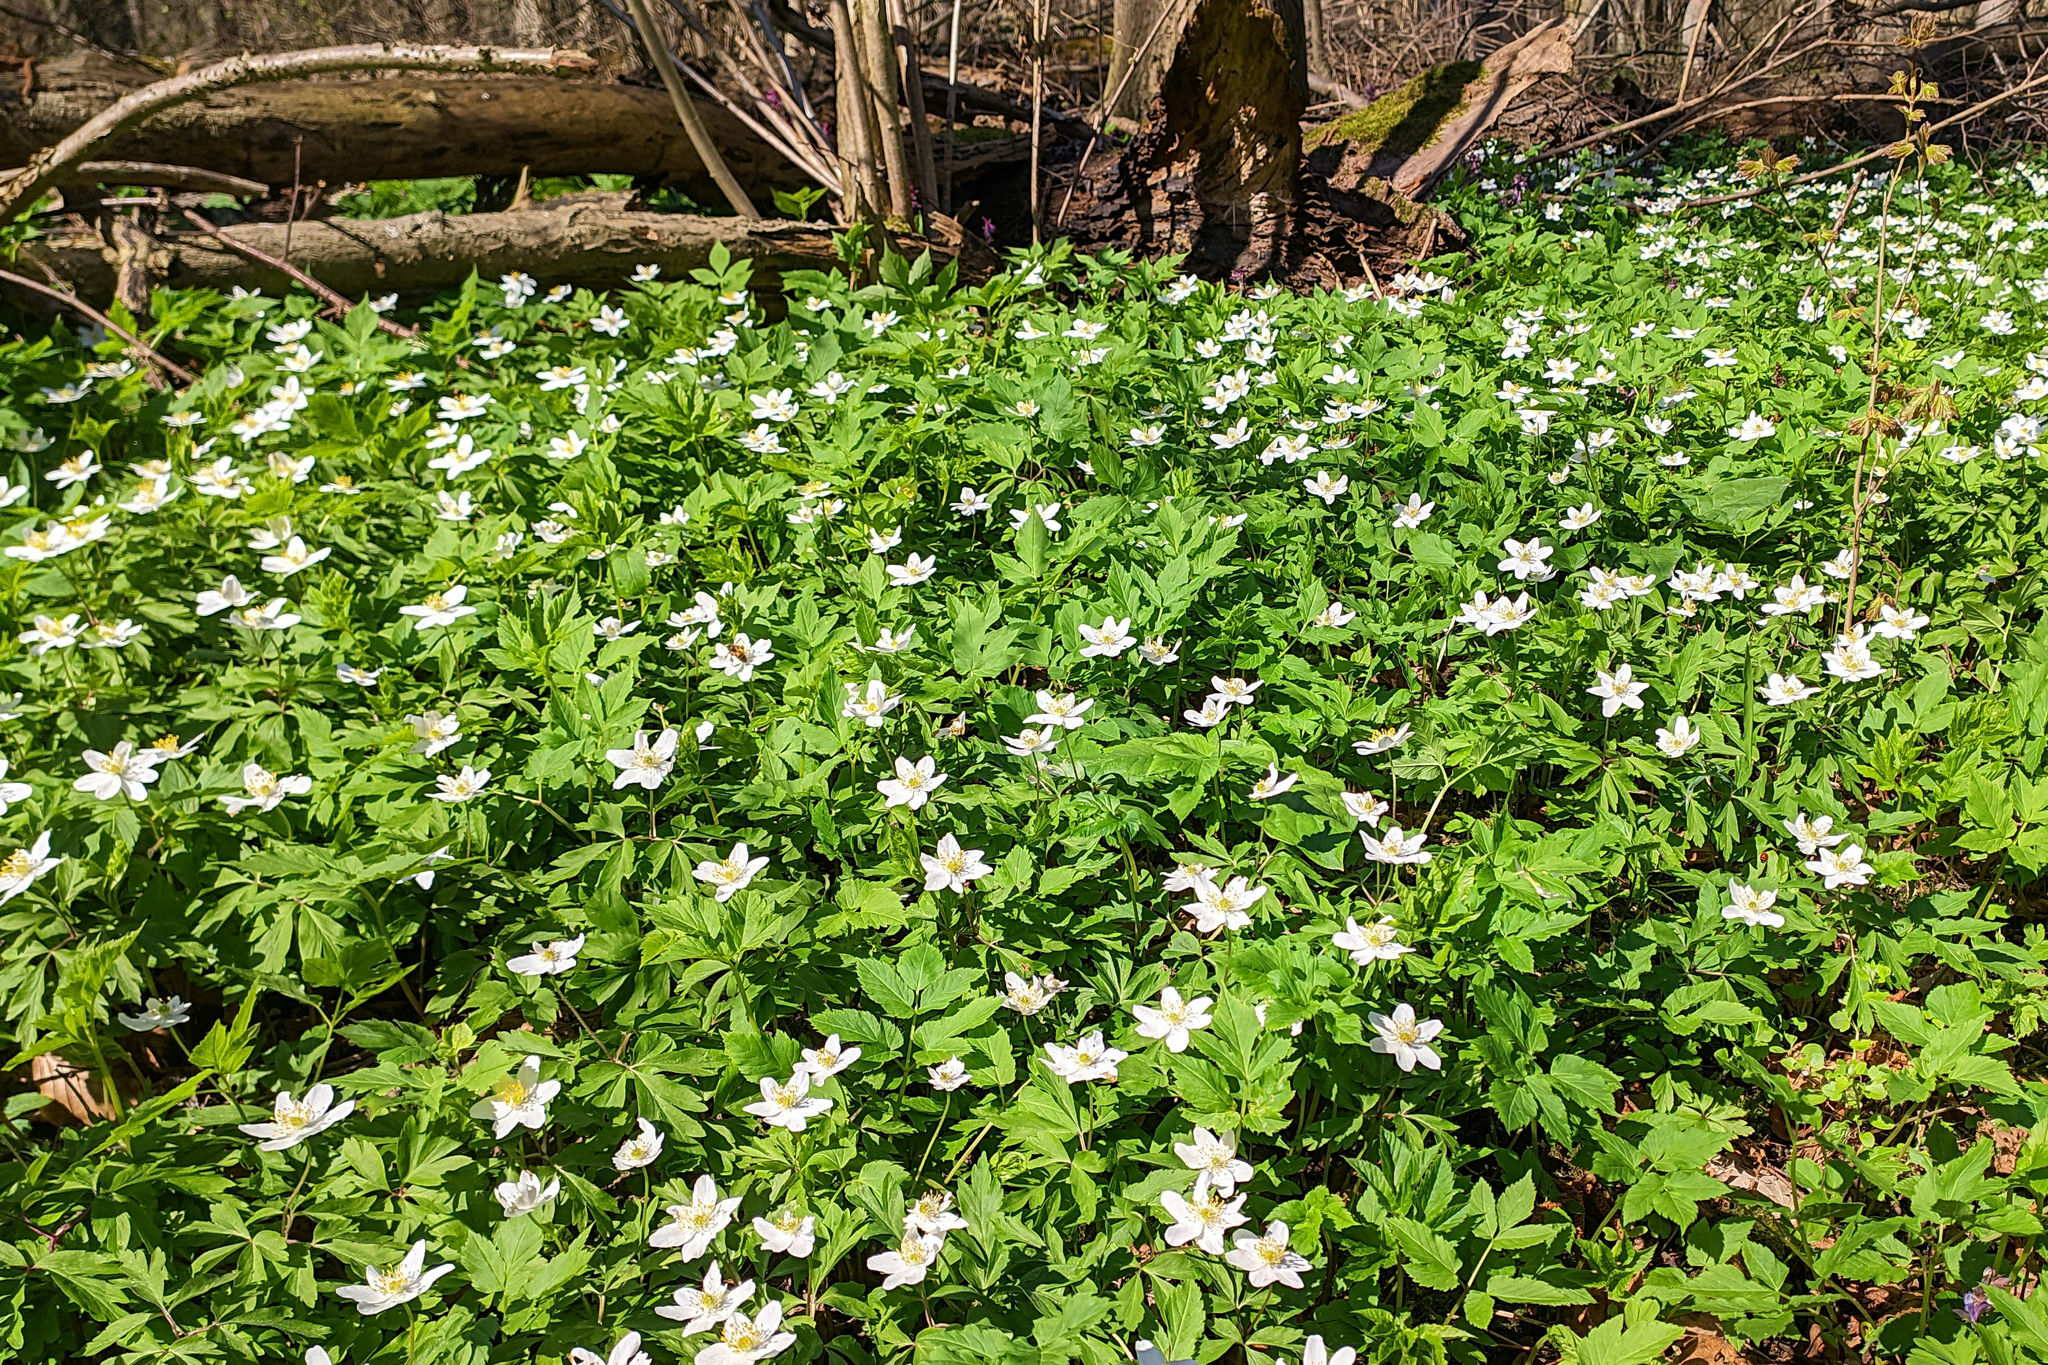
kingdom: Plantae
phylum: Tracheophyta
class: Magnoliopsida
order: Ranunculales
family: Ranunculaceae
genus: Anemone
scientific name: Anemone nemorosa
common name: Wood anemone
